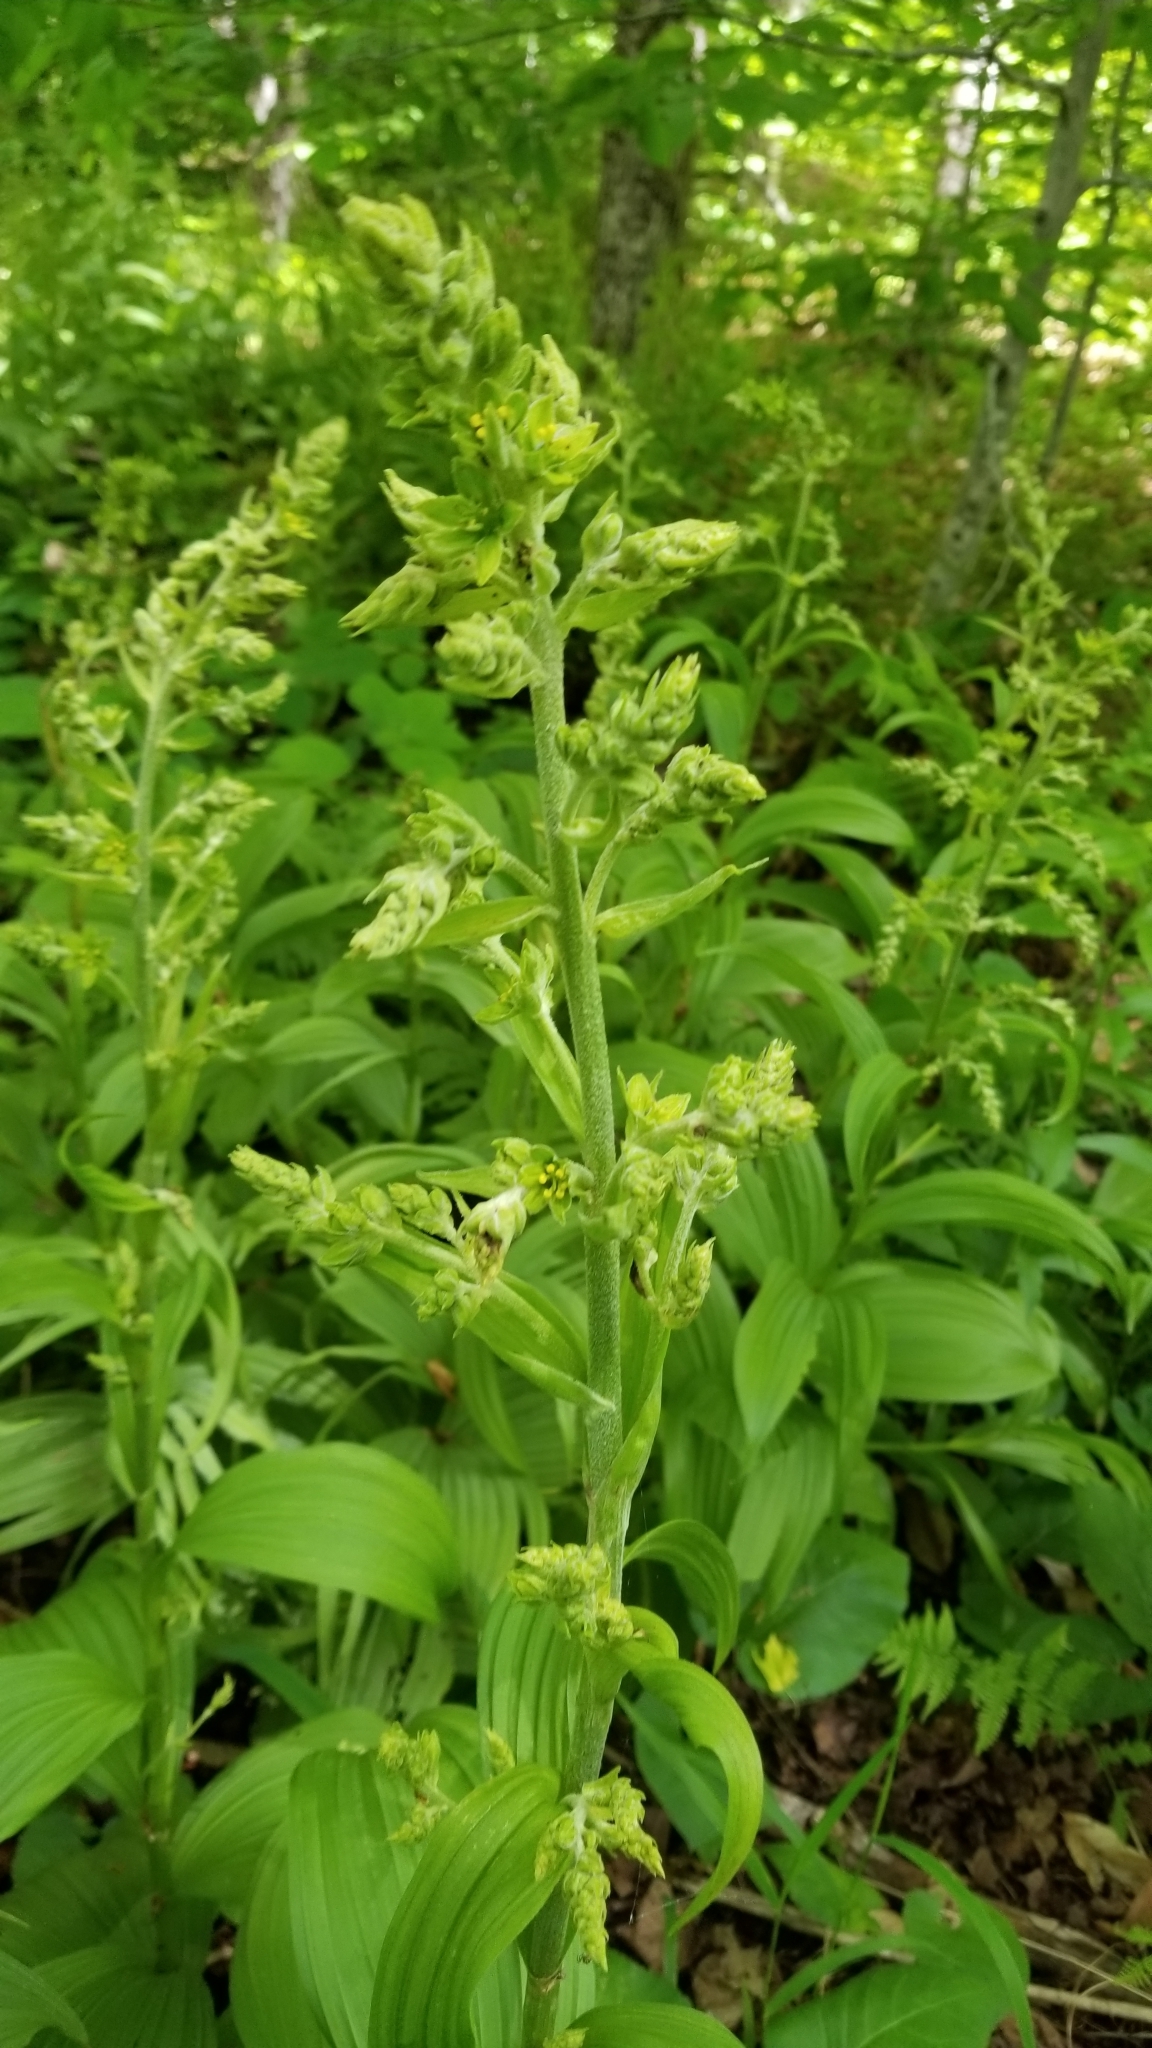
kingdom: Plantae
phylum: Tracheophyta
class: Liliopsida
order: Liliales
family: Melanthiaceae
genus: Veratrum
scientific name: Veratrum viride
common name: American false hellebore
